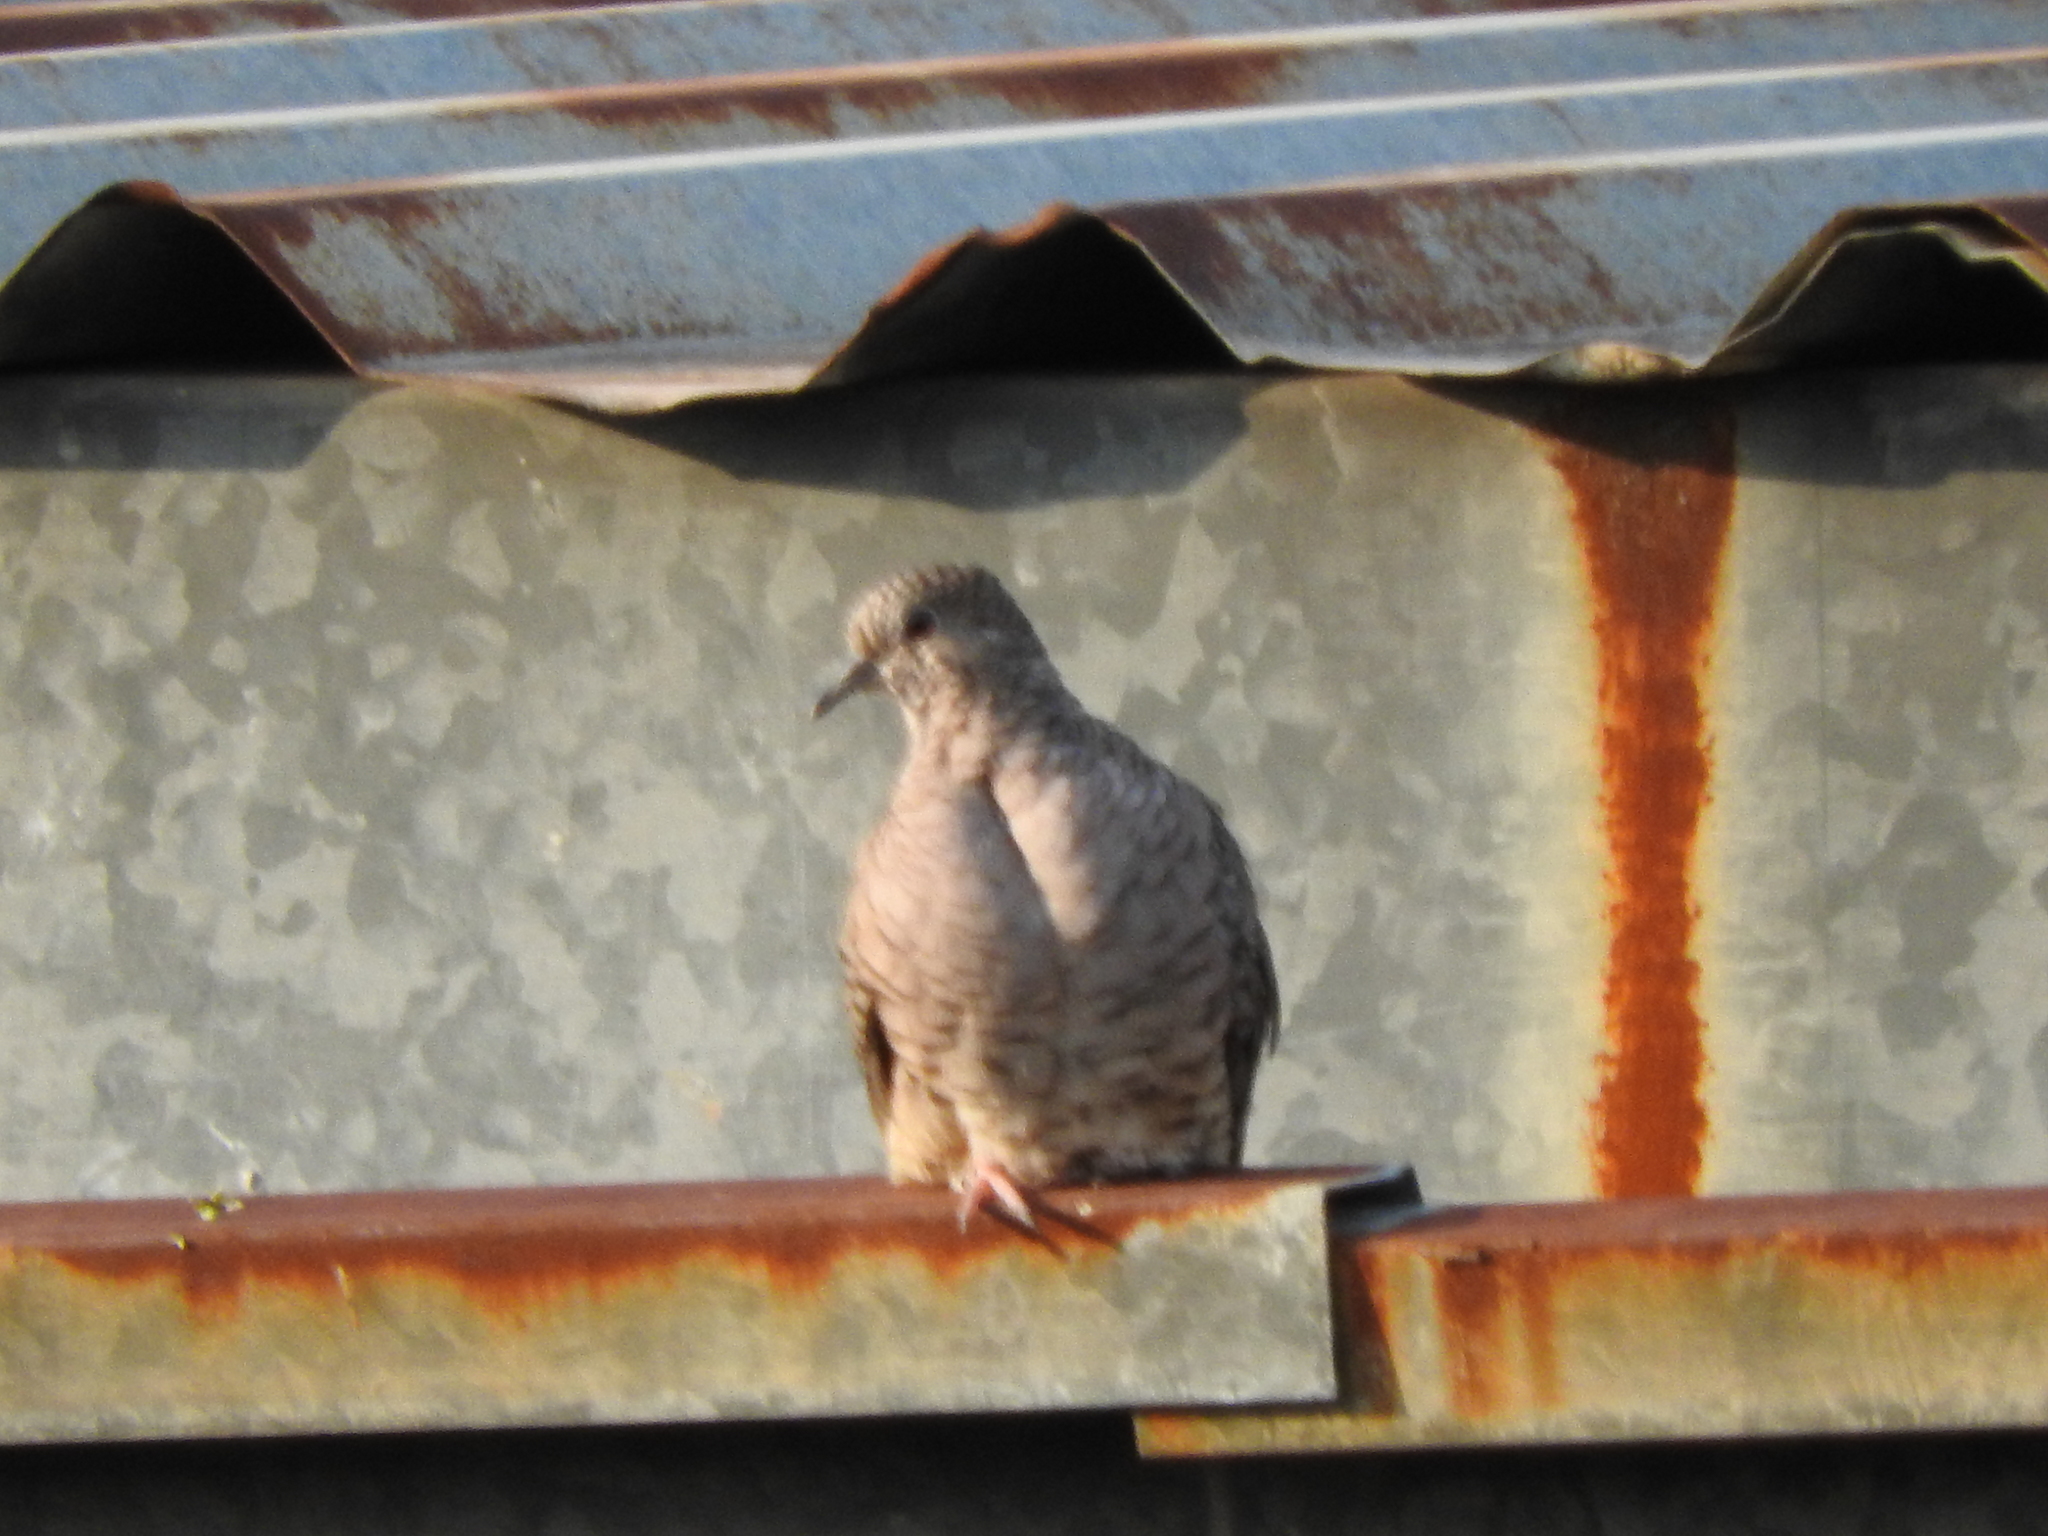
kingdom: Animalia
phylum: Chordata
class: Aves
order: Columbiformes
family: Columbidae
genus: Columbina
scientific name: Columbina inca
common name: Inca dove
